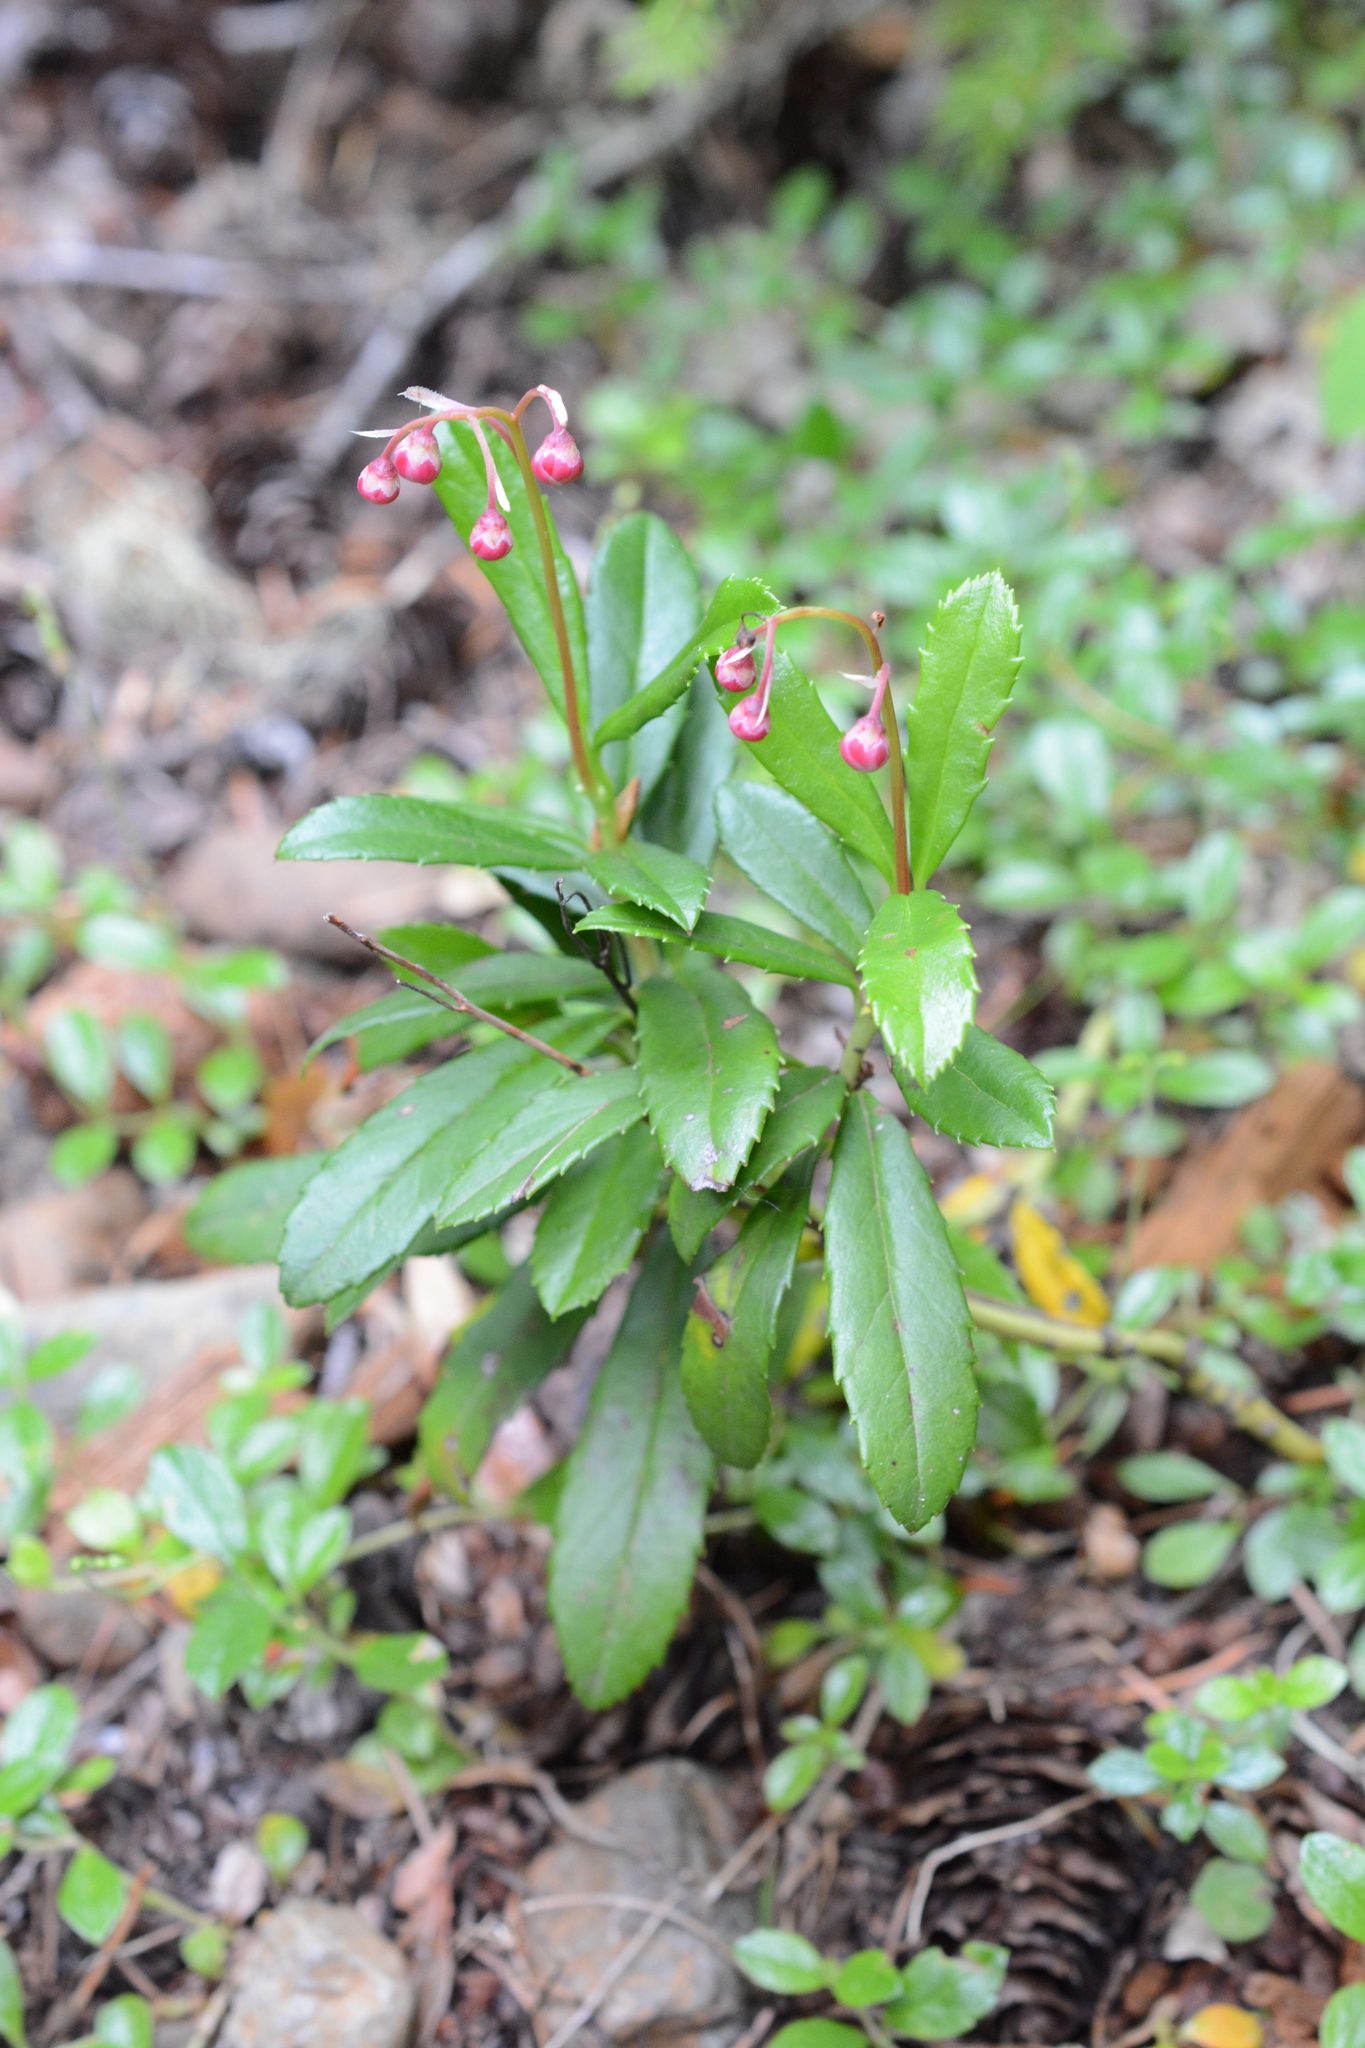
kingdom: Plantae
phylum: Tracheophyta
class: Magnoliopsida
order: Ericales
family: Ericaceae
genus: Chimaphila
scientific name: Chimaphila umbellata
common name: Pipsissewa
